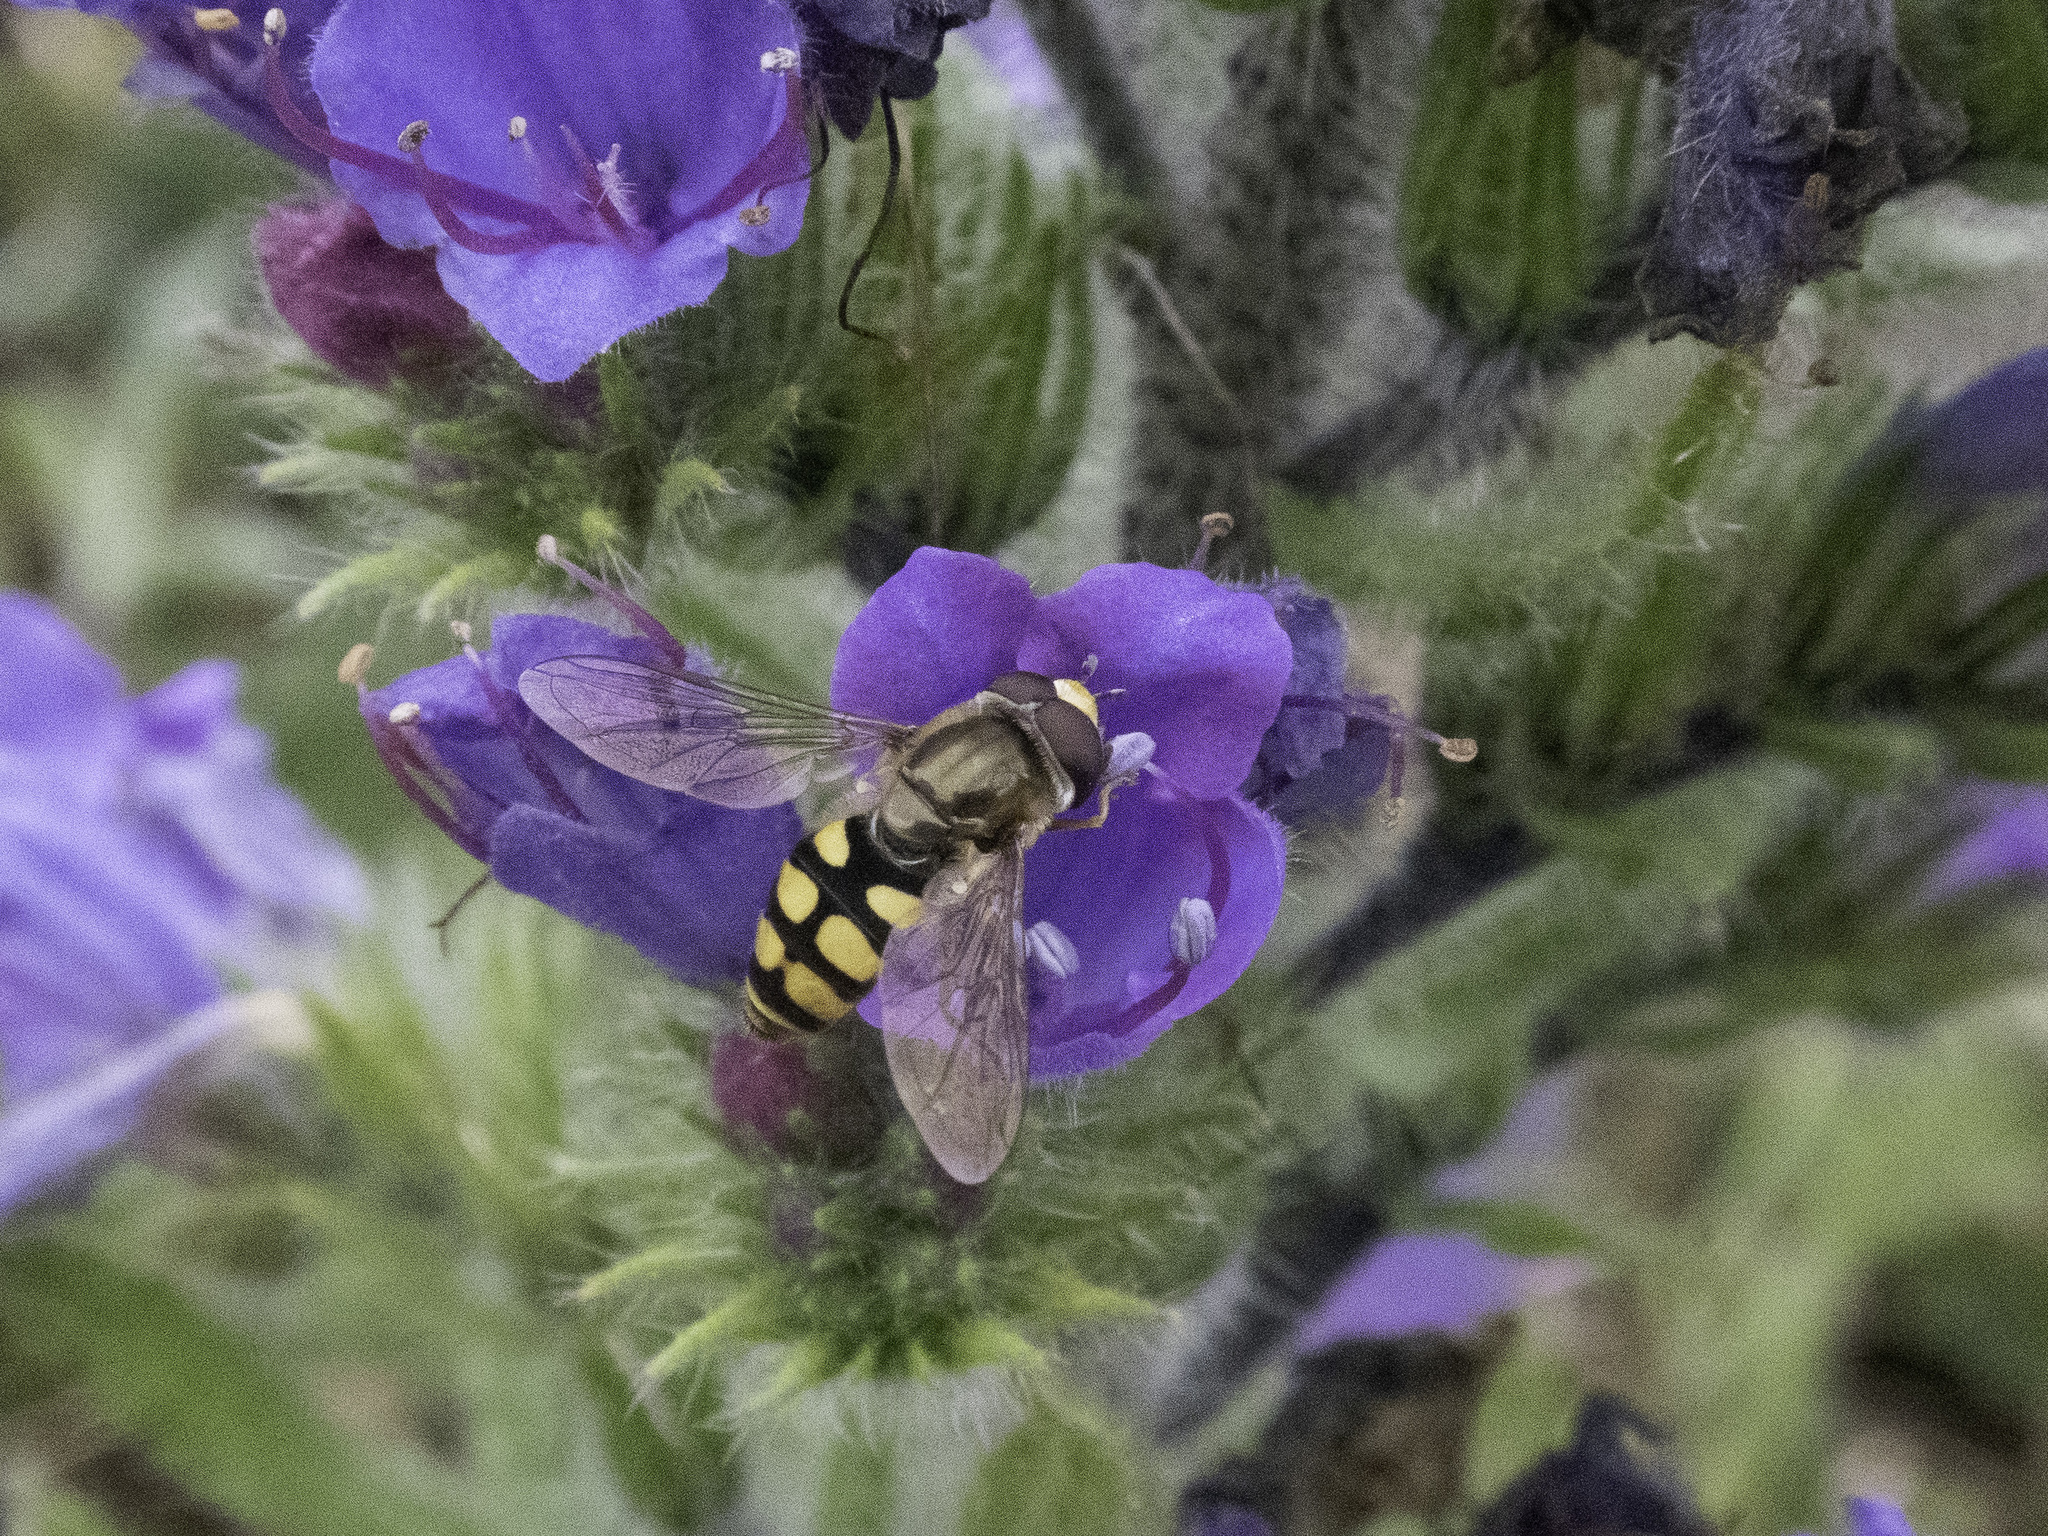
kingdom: Animalia
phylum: Arthropoda
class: Insecta
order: Diptera
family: Syrphidae
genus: Eupeodes
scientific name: Eupeodes corollae
